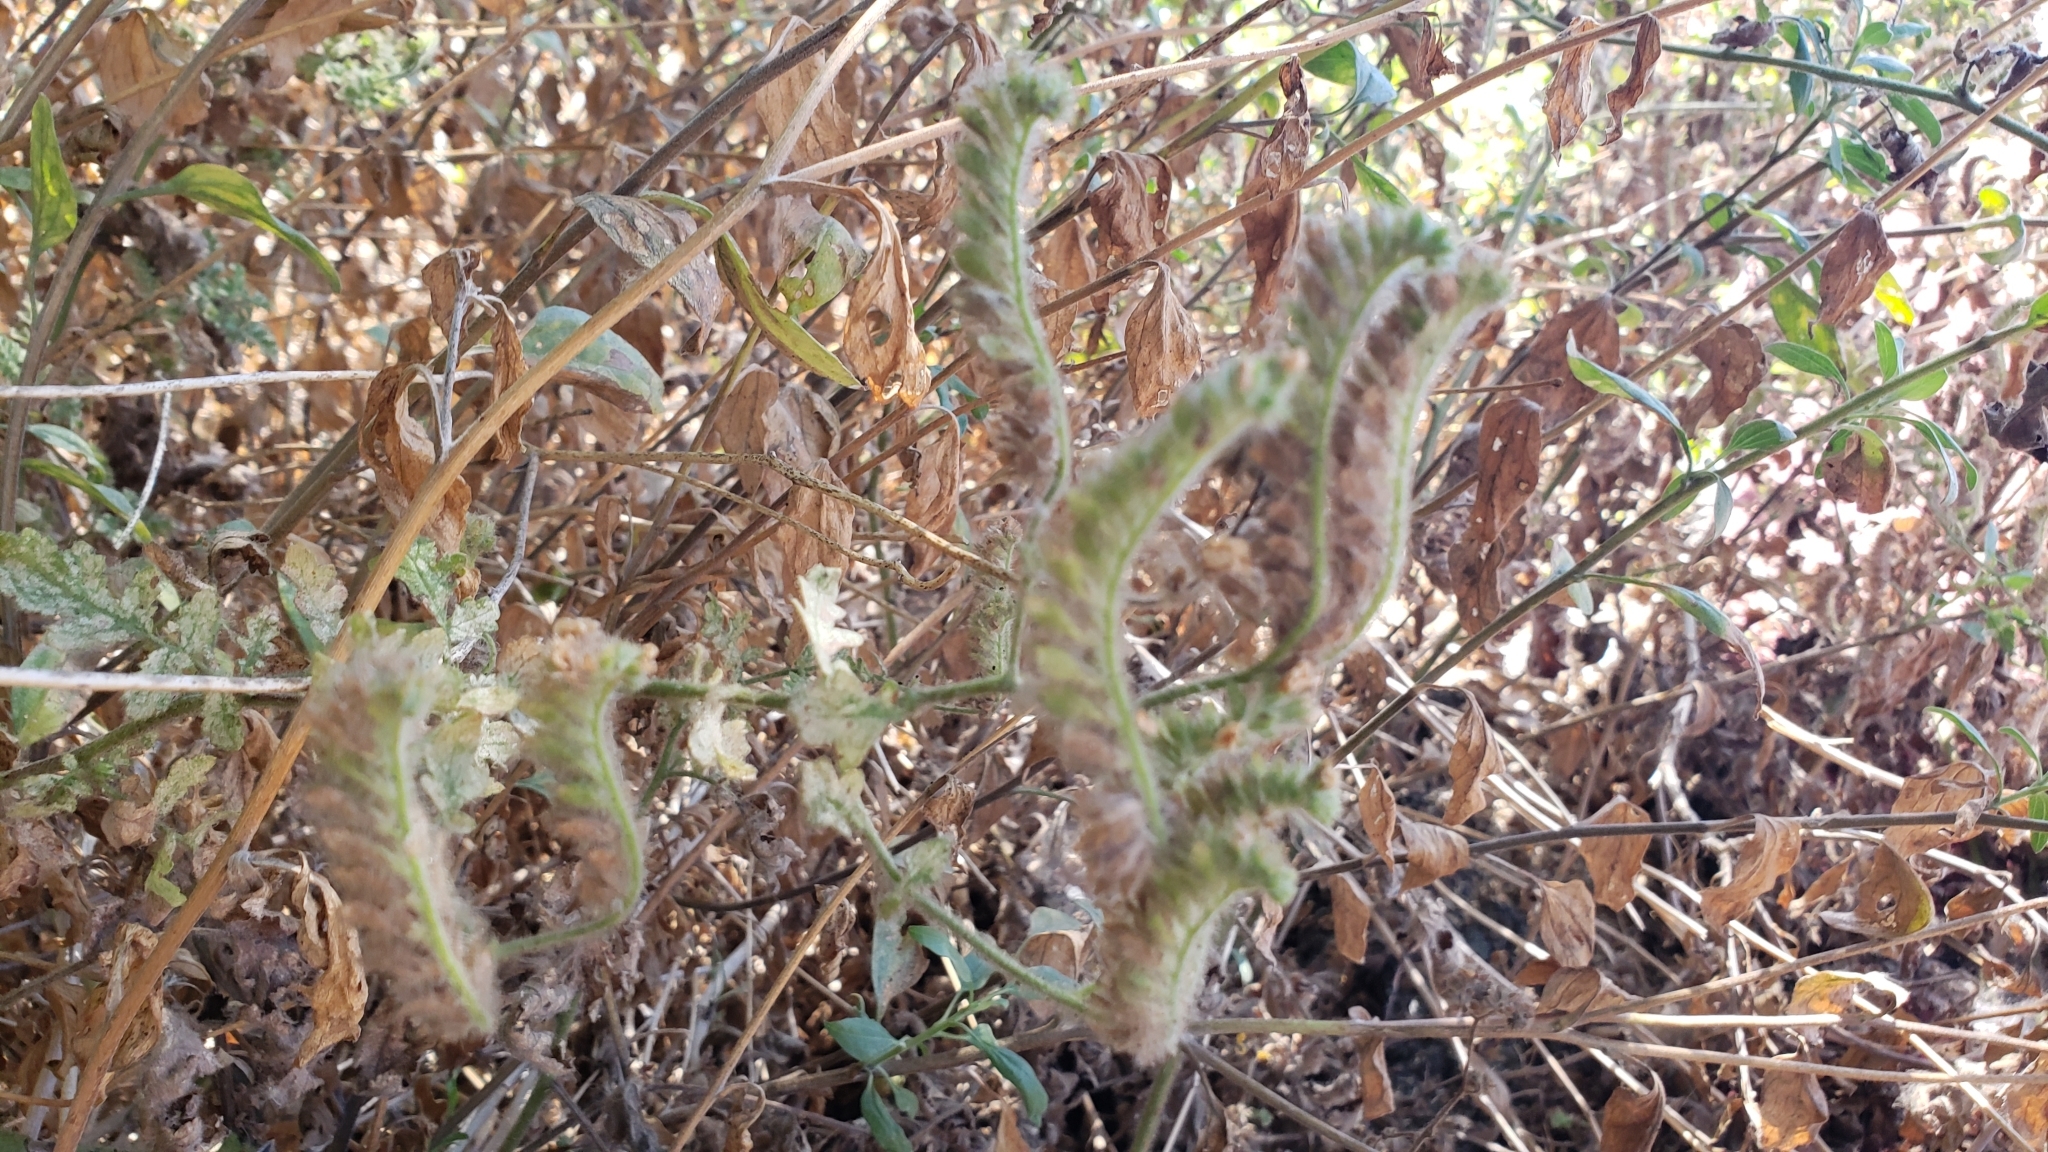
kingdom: Plantae
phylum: Tracheophyta
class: Magnoliopsida
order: Boraginales
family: Hydrophyllaceae
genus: Phacelia
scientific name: Phacelia ramosissima
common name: Branching phacelia
